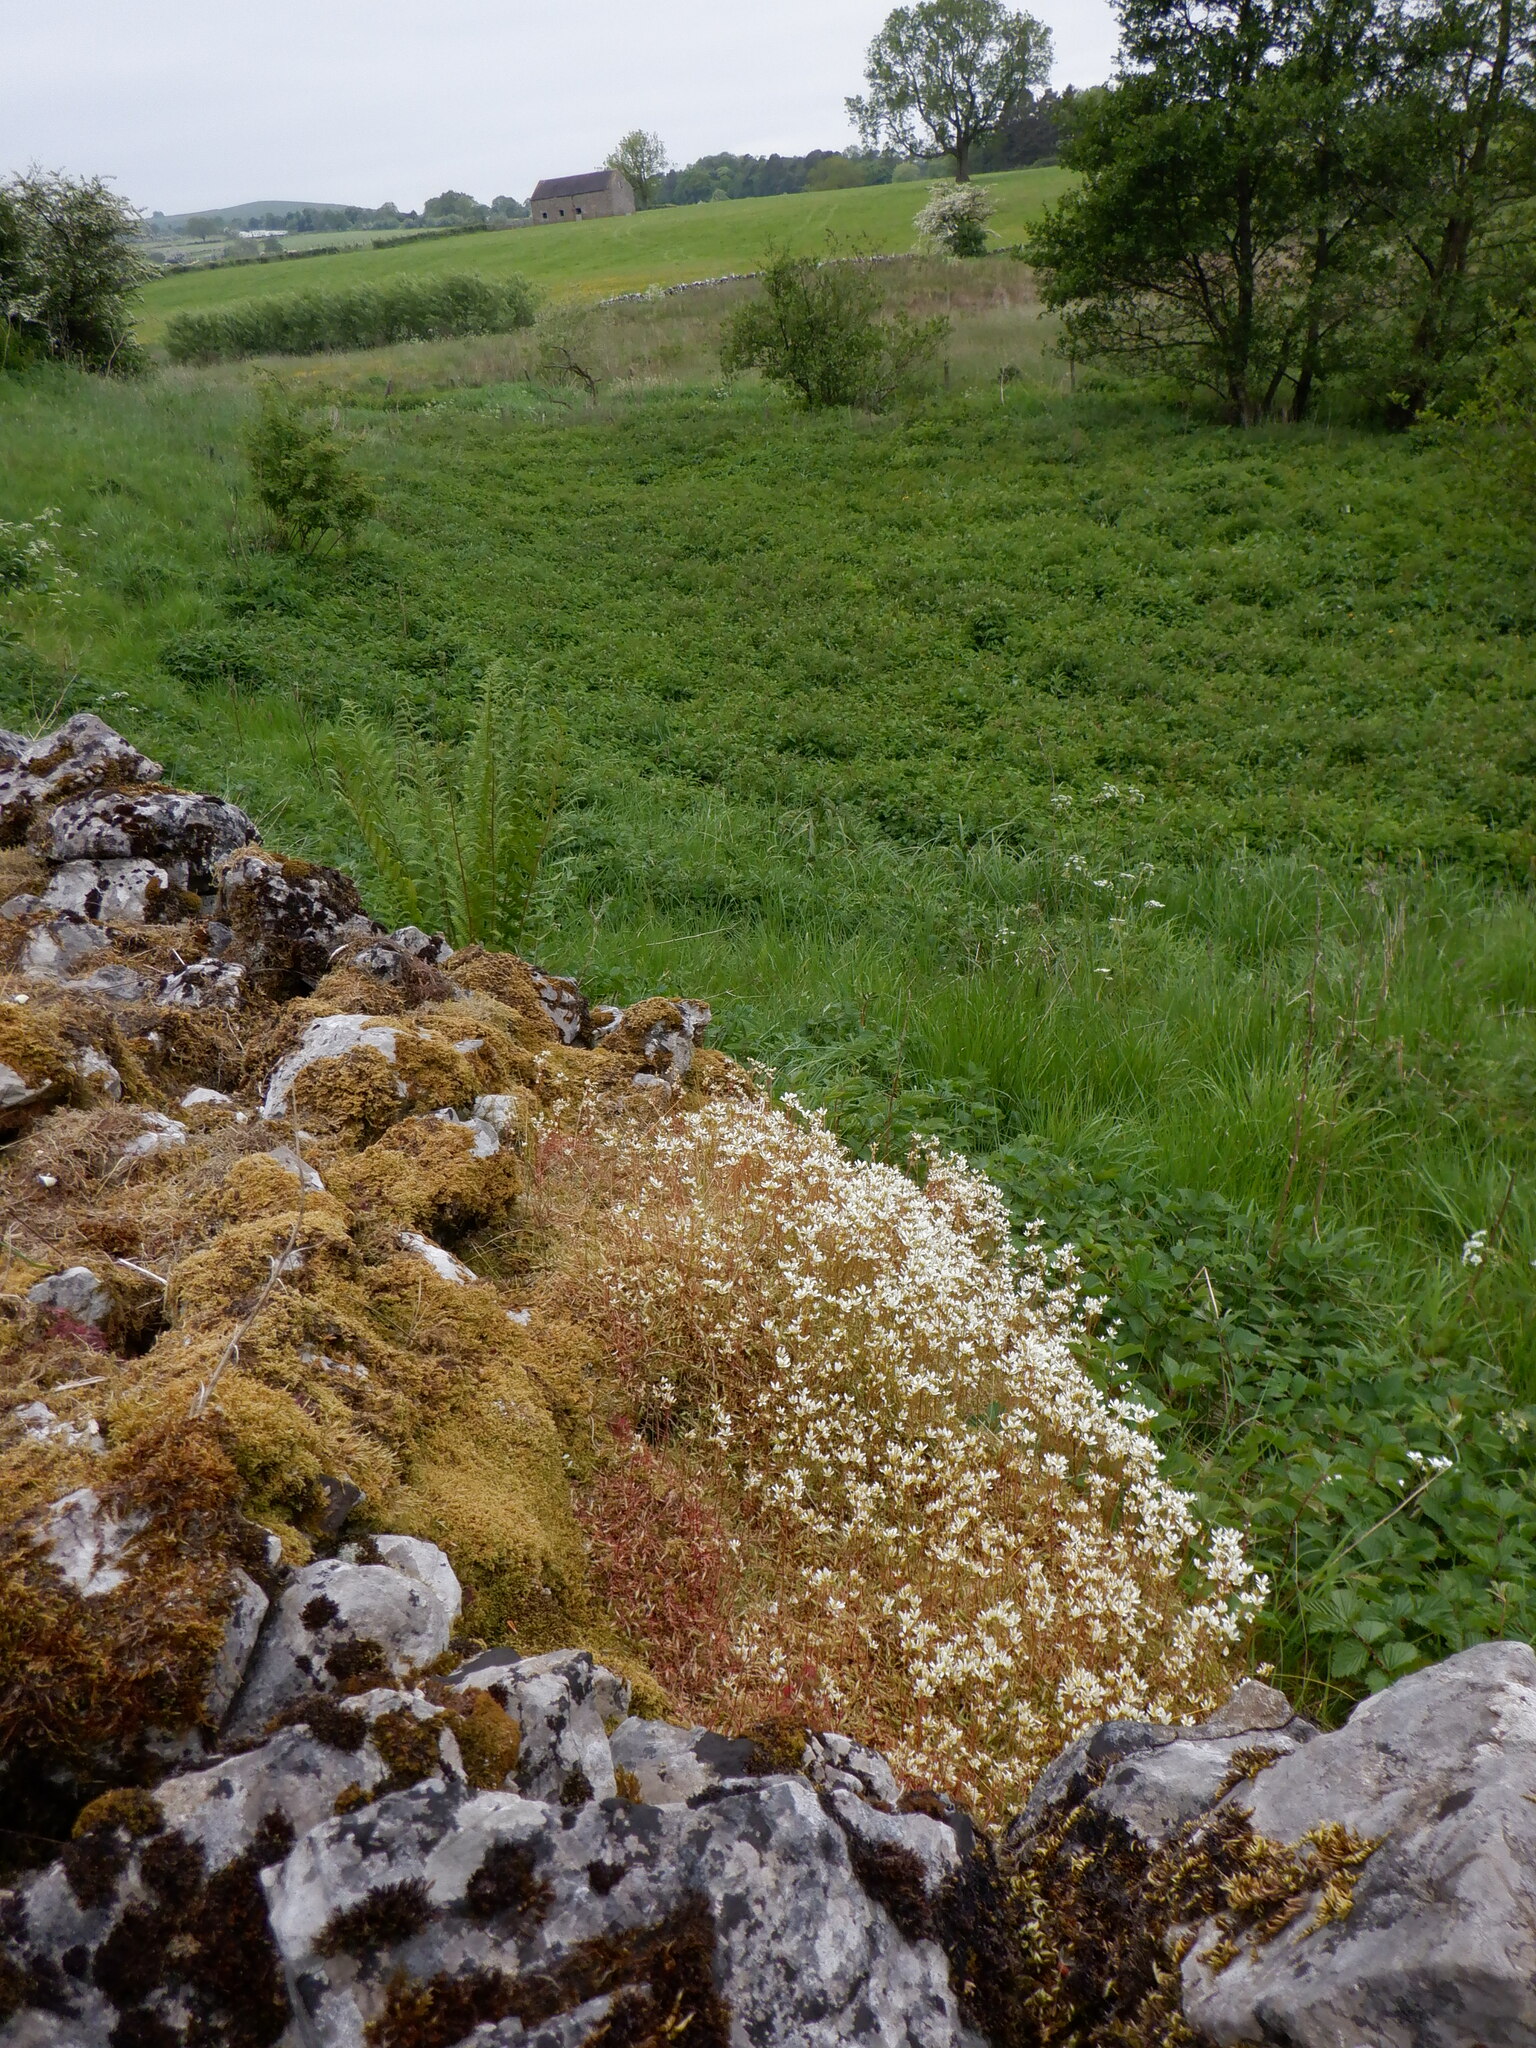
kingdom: Plantae
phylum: Tracheophyta
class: Magnoliopsida
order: Saxifragales
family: Saxifragaceae
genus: Saxifraga
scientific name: Saxifraga hypnoides
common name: Mossy saxifrage
